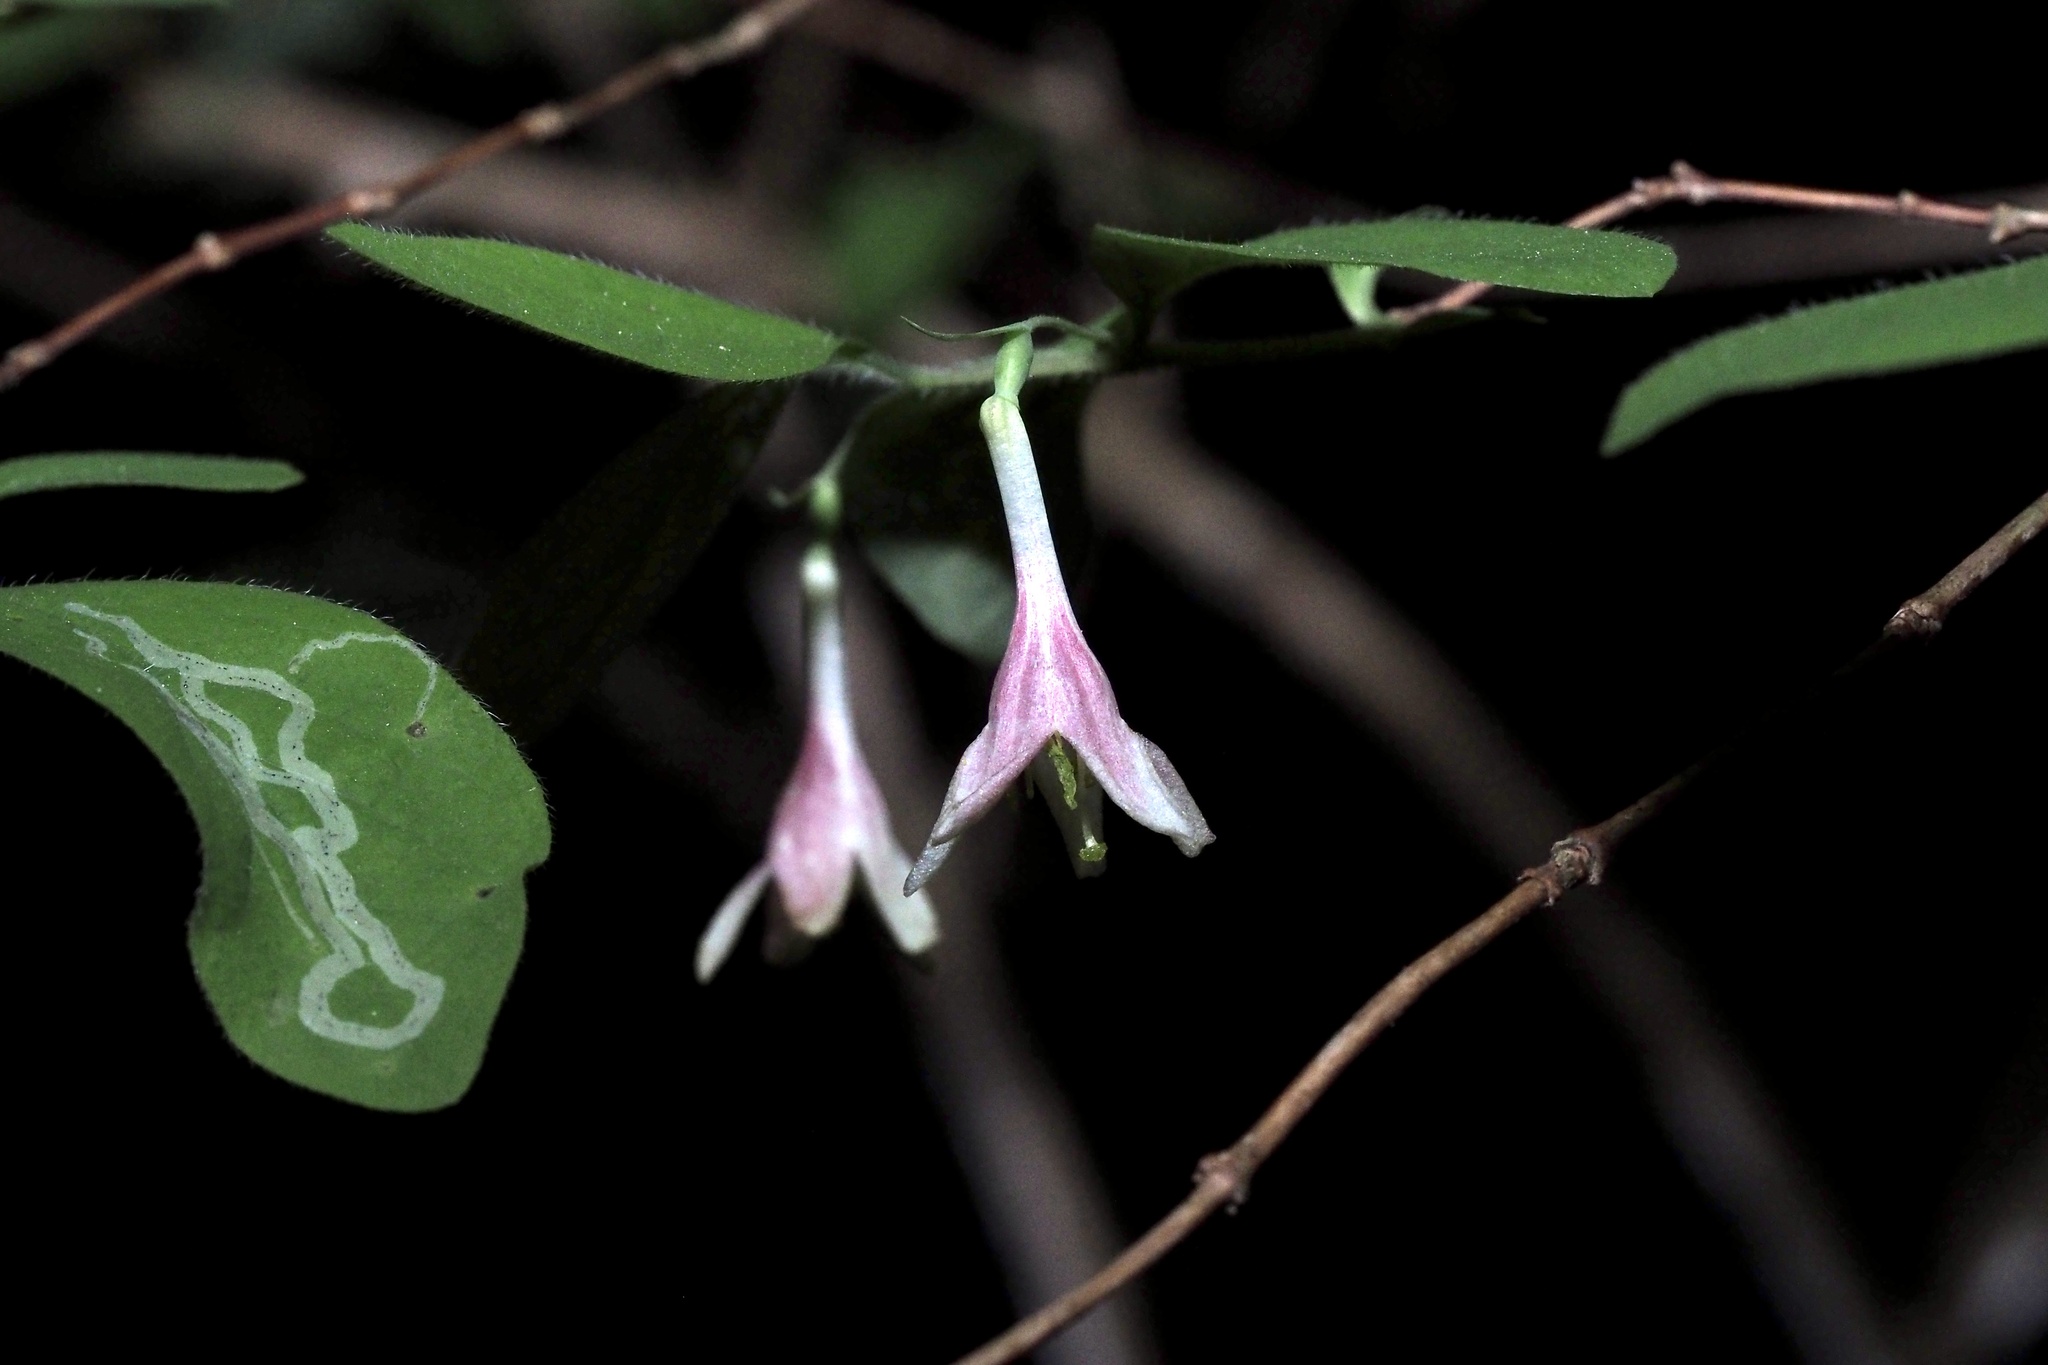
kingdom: Plantae
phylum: Tracheophyta
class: Magnoliopsida
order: Dipsacales
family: Caprifoliaceae
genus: Lonicera
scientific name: Lonicera gracilipes
